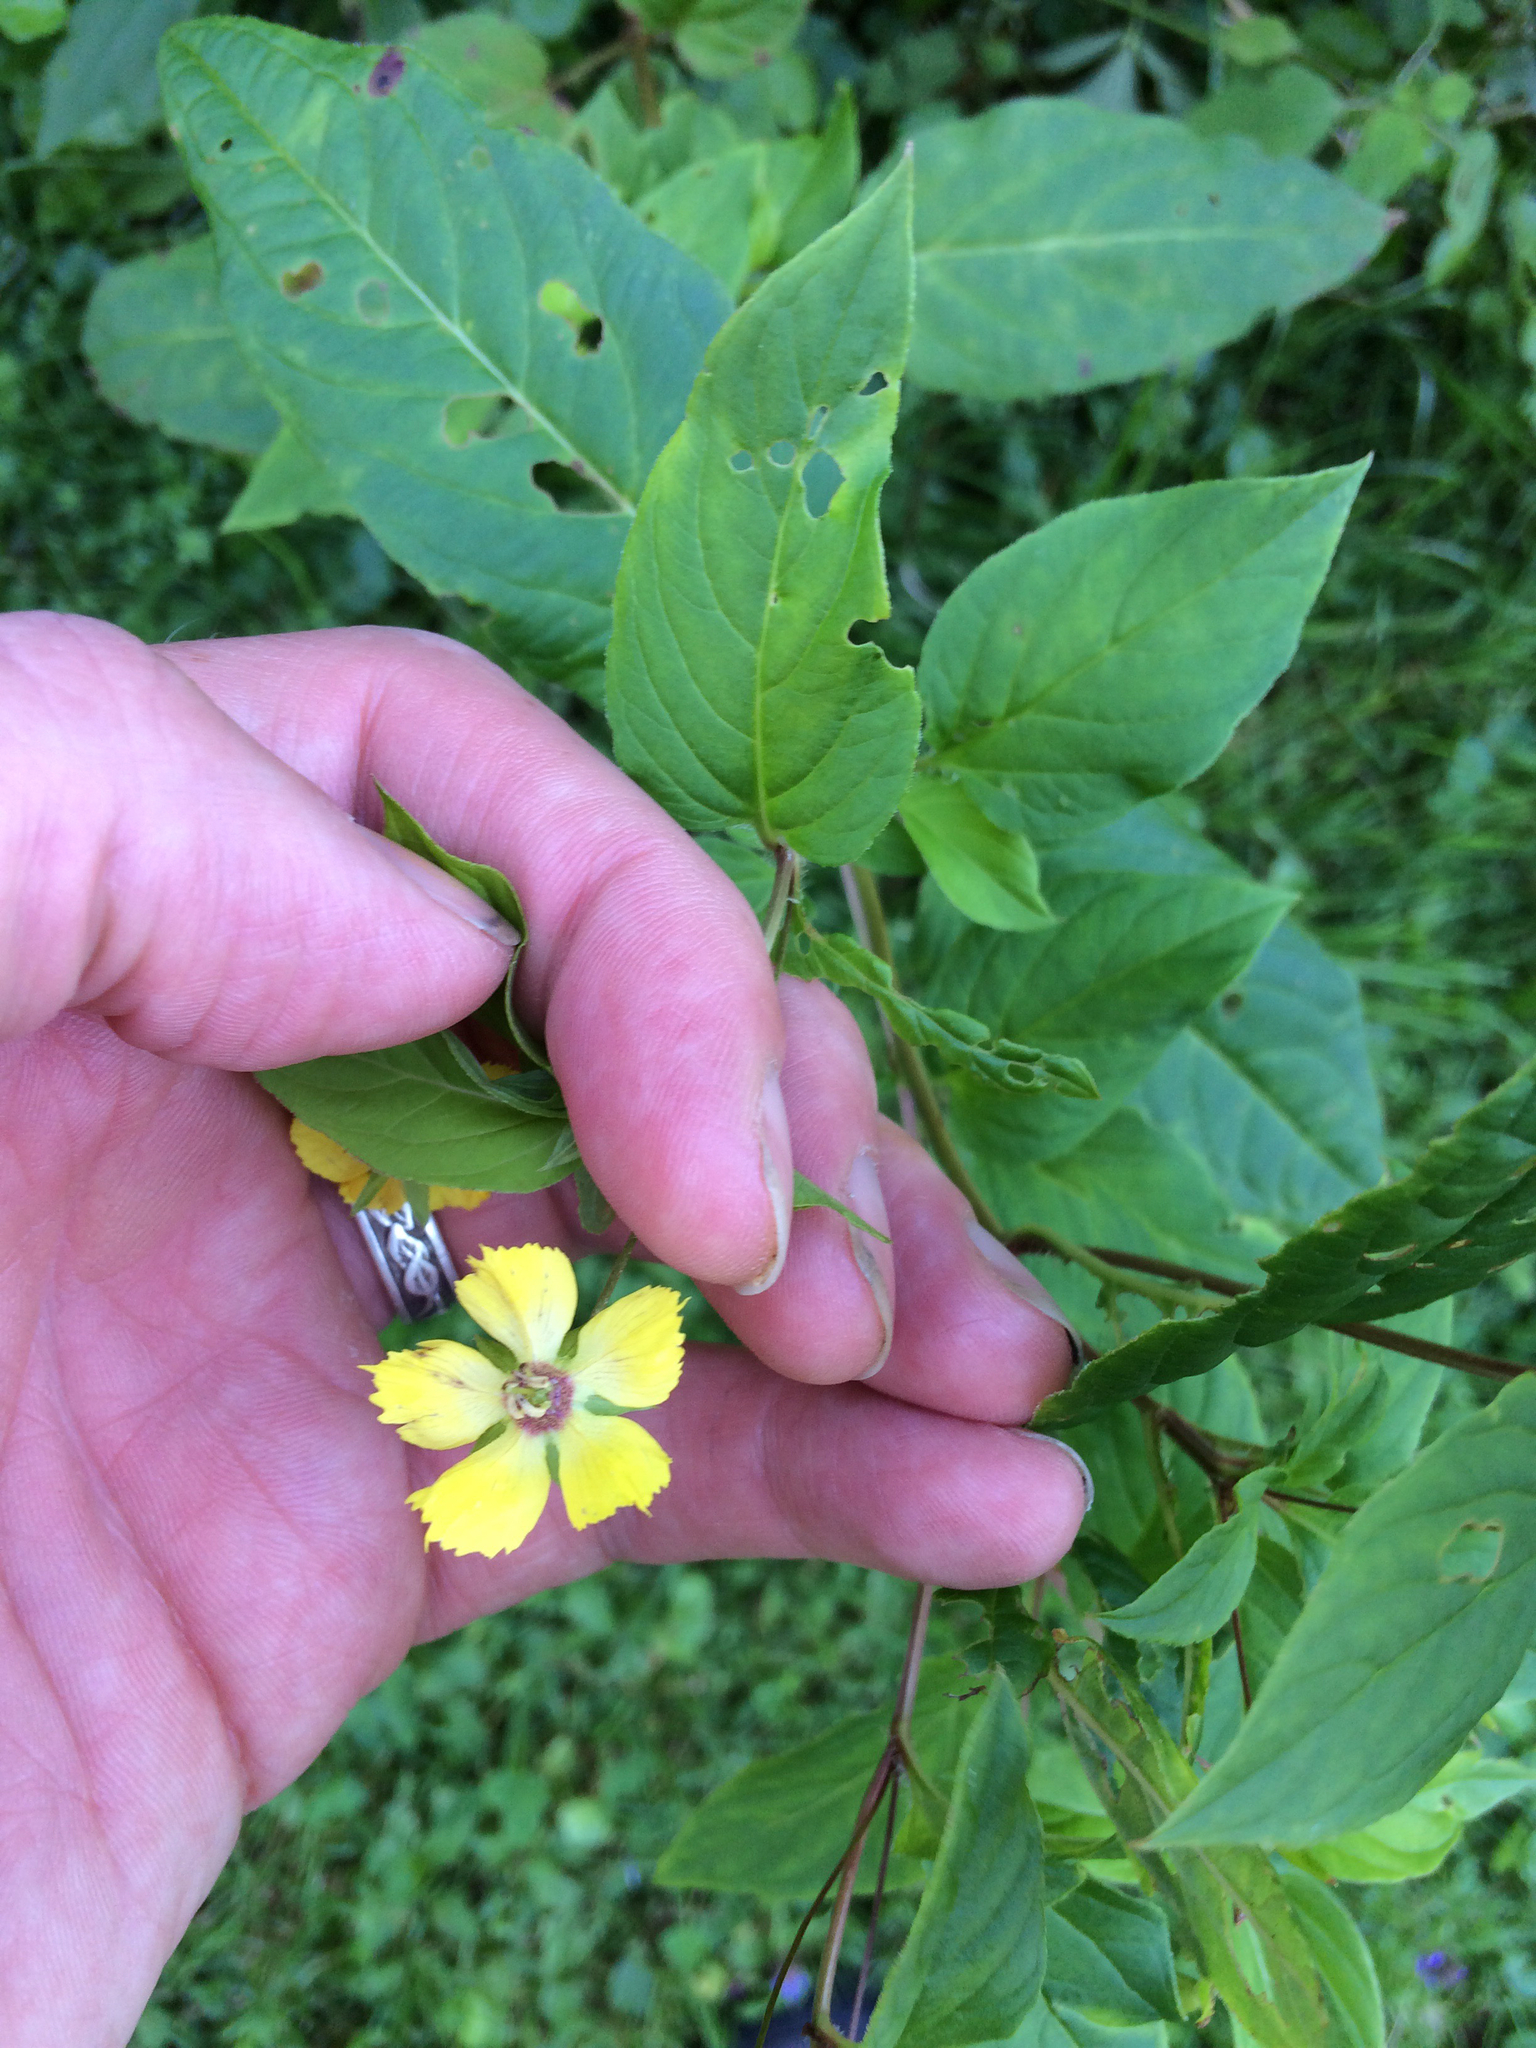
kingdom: Plantae
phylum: Tracheophyta
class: Magnoliopsida
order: Ericales
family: Primulaceae
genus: Lysimachia
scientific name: Lysimachia ciliata
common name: Fringed loosestrife
